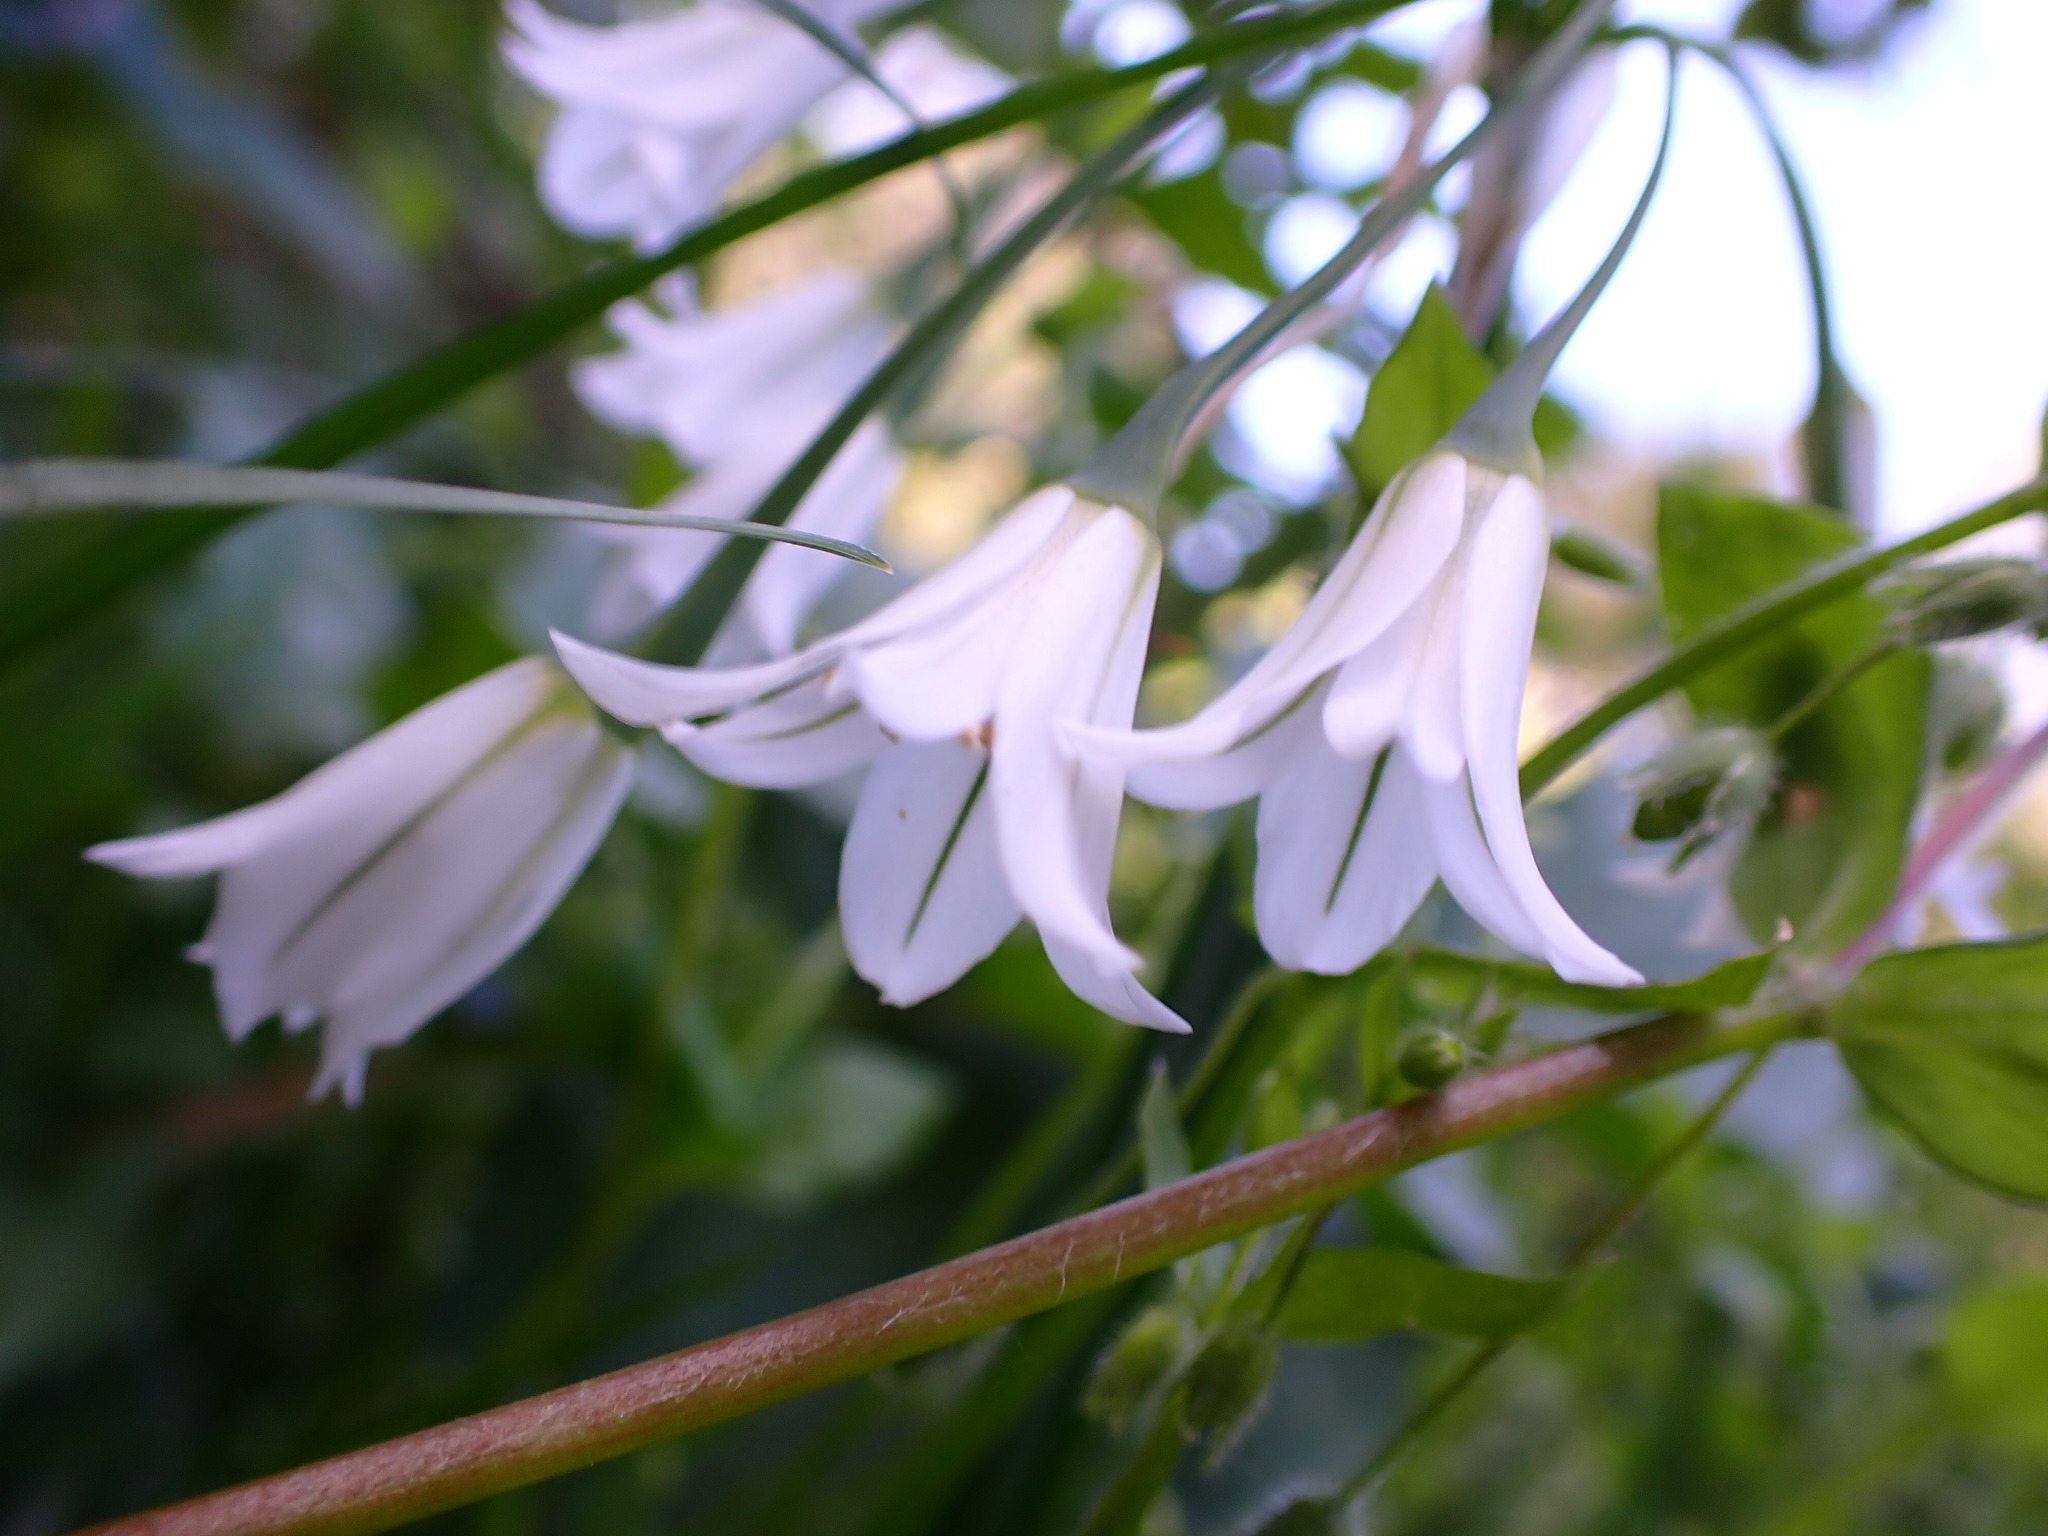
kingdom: Plantae
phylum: Tracheophyta
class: Liliopsida
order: Asparagales
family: Amaryllidaceae
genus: Allium
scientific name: Allium triquetrum
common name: Three-cornered garlic
